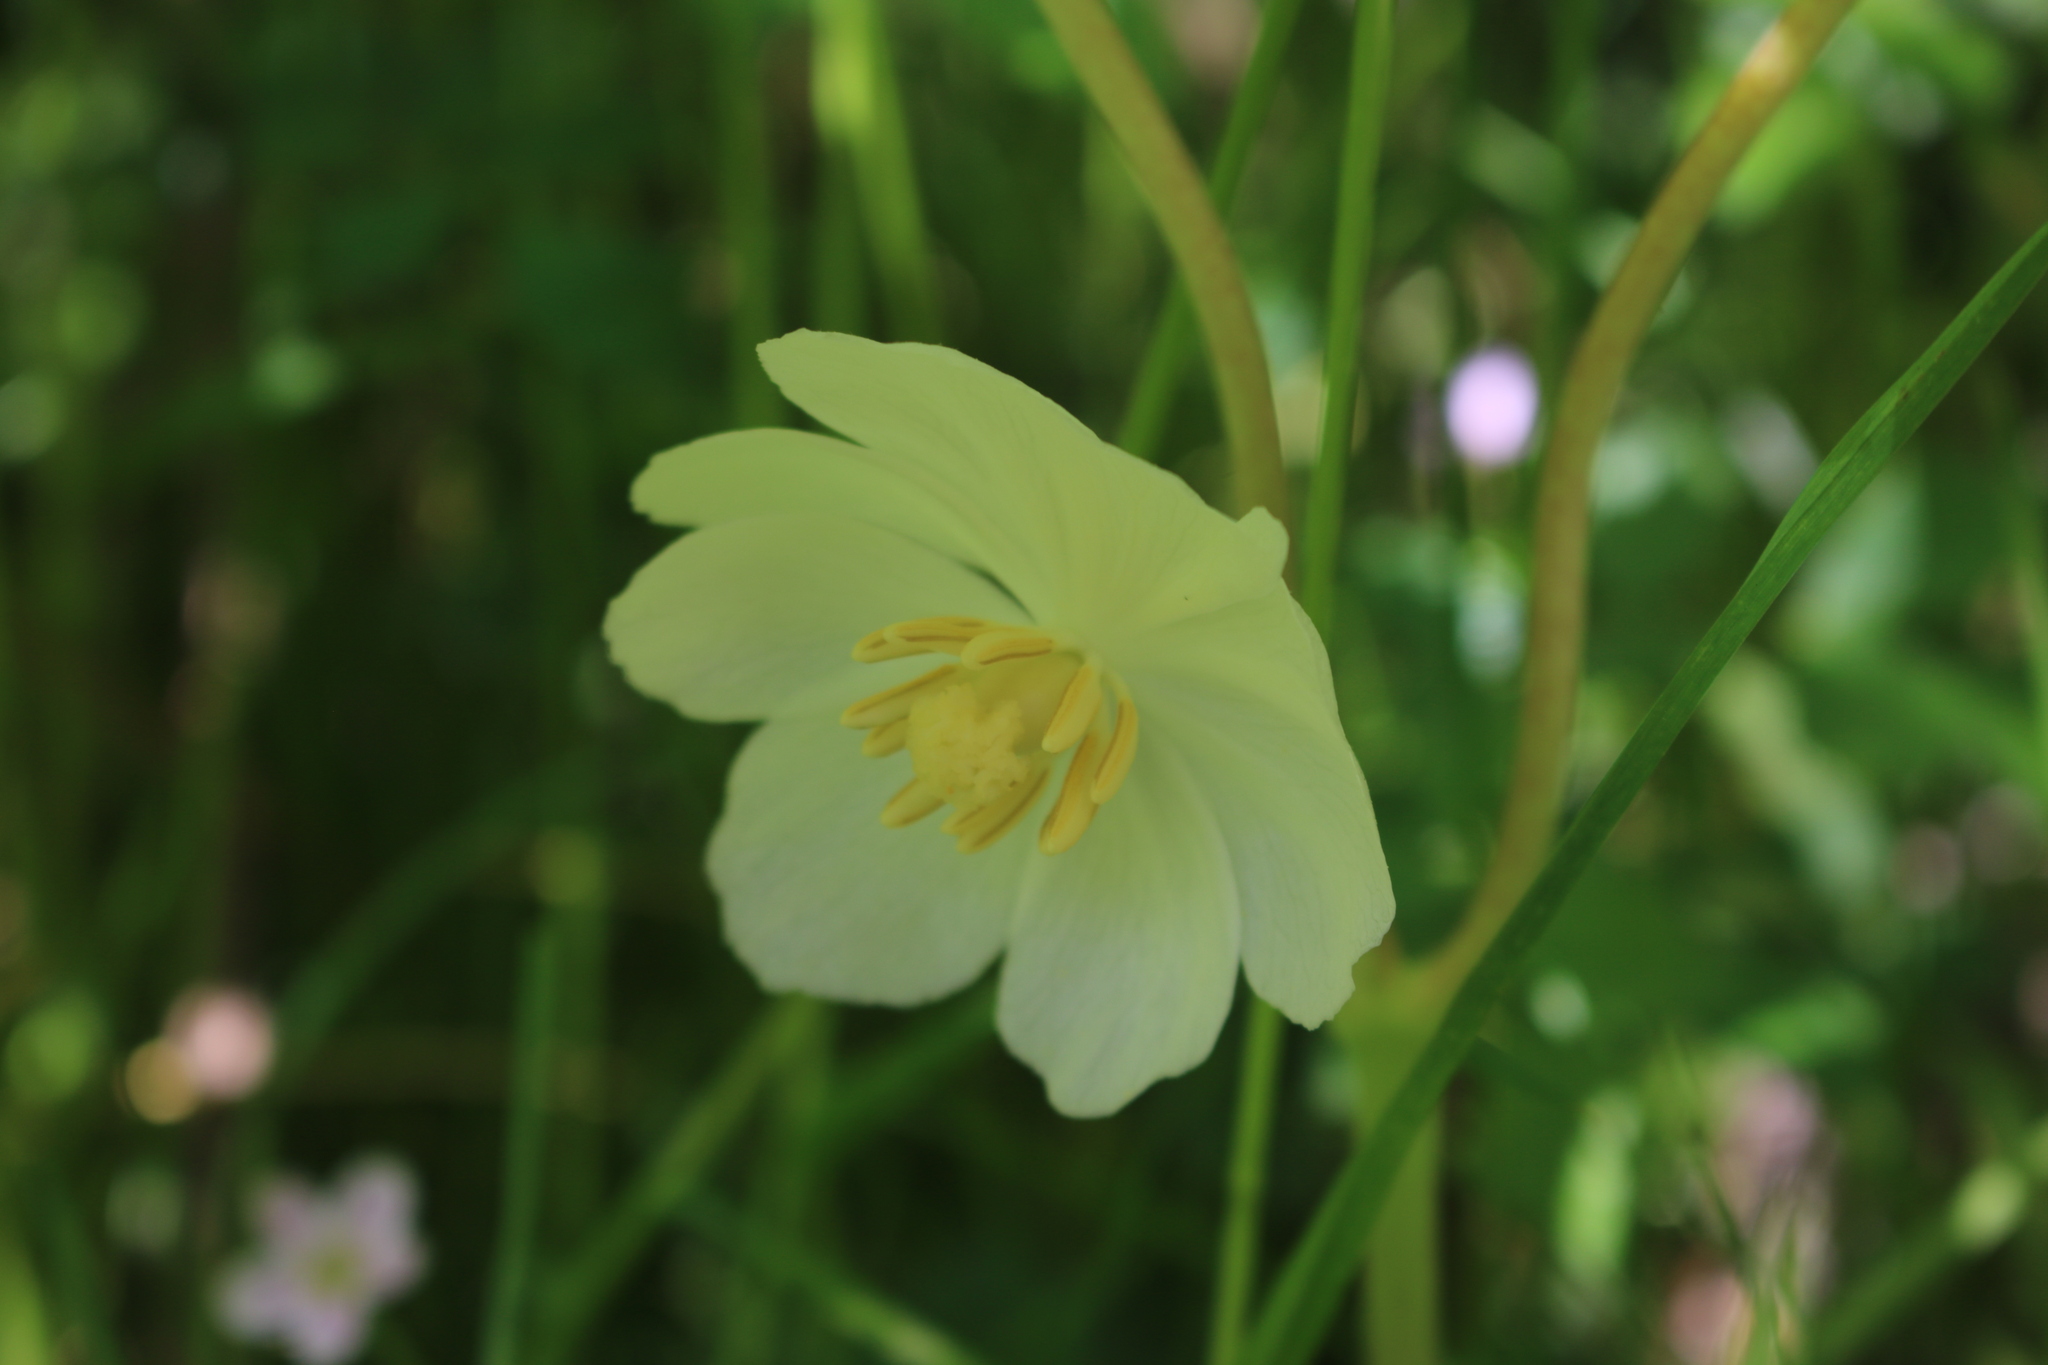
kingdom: Plantae
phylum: Tracheophyta
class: Magnoliopsida
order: Ranunculales
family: Berberidaceae
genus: Podophyllum
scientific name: Podophyllum peltatum
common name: Wild mandrake
